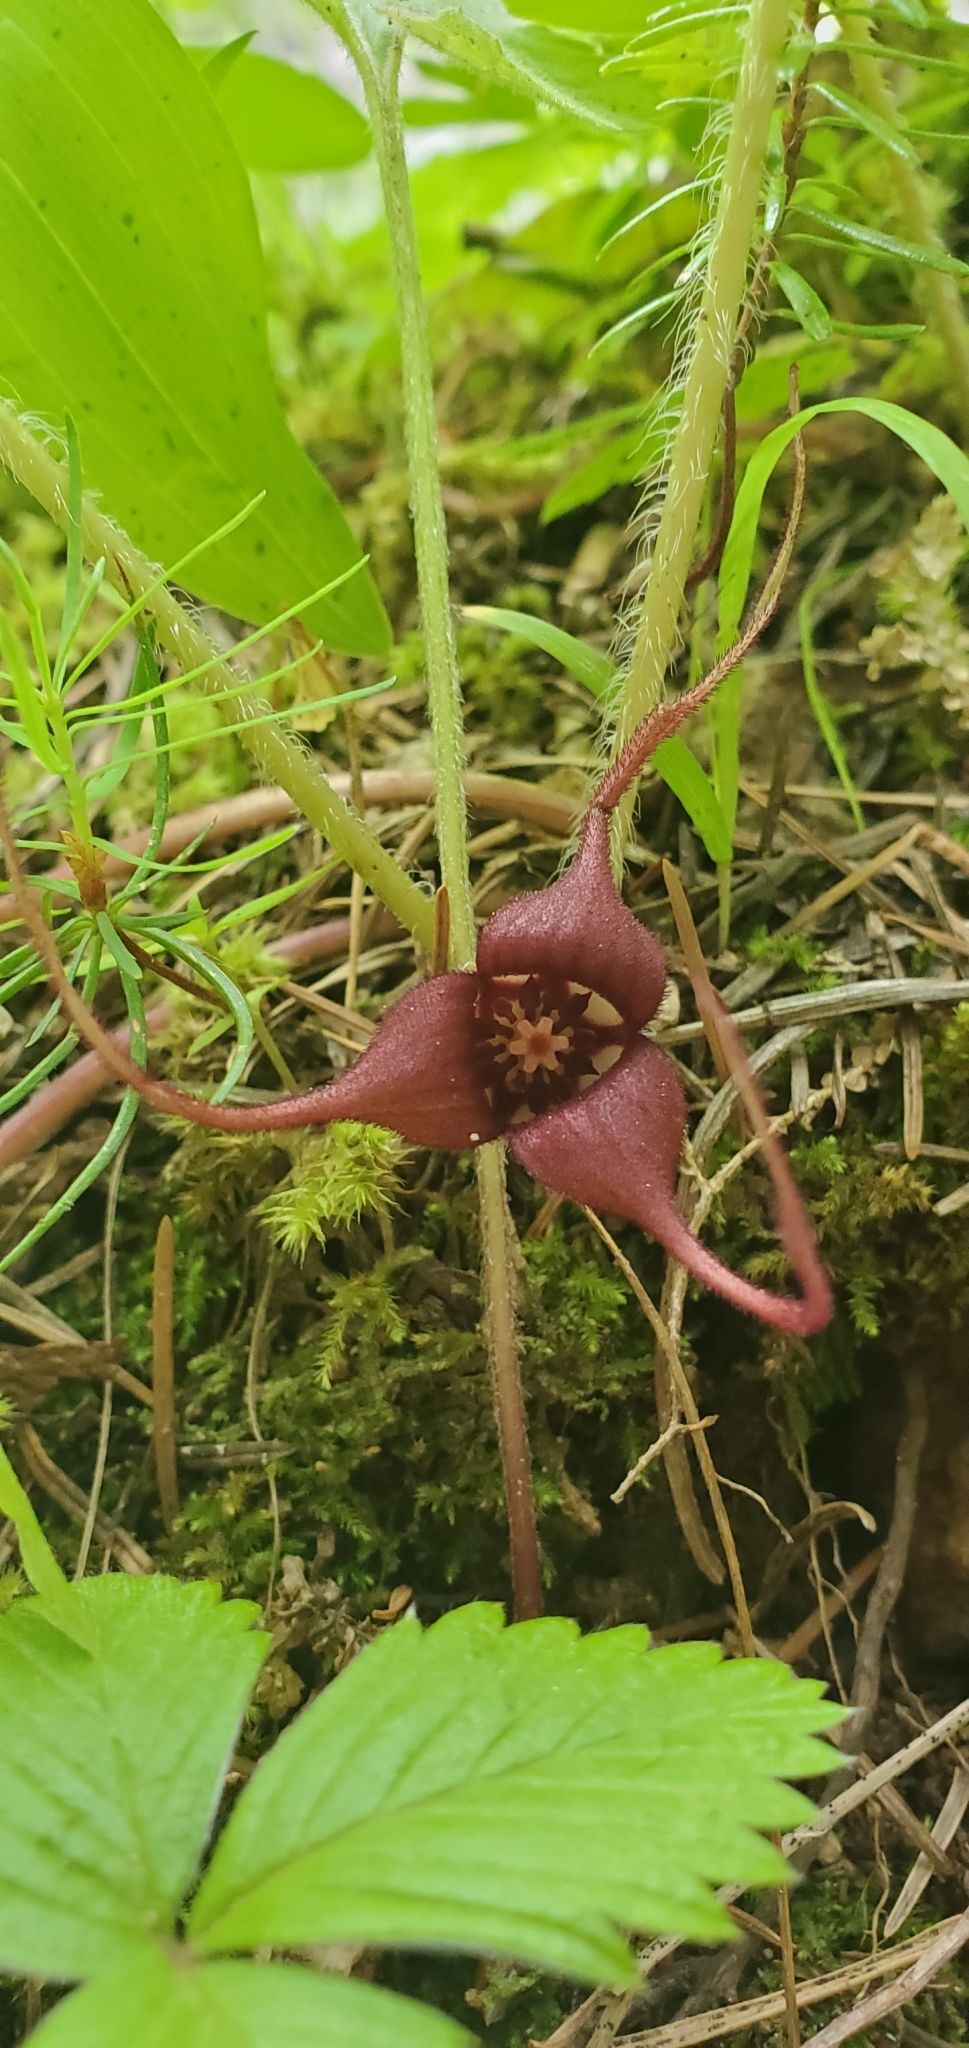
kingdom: Plantae
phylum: Tracheophyta
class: Magnoliopsida
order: Piperales
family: Aristolochiaceae
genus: Asarum
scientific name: Asarum caudatum
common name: Wild ginger
